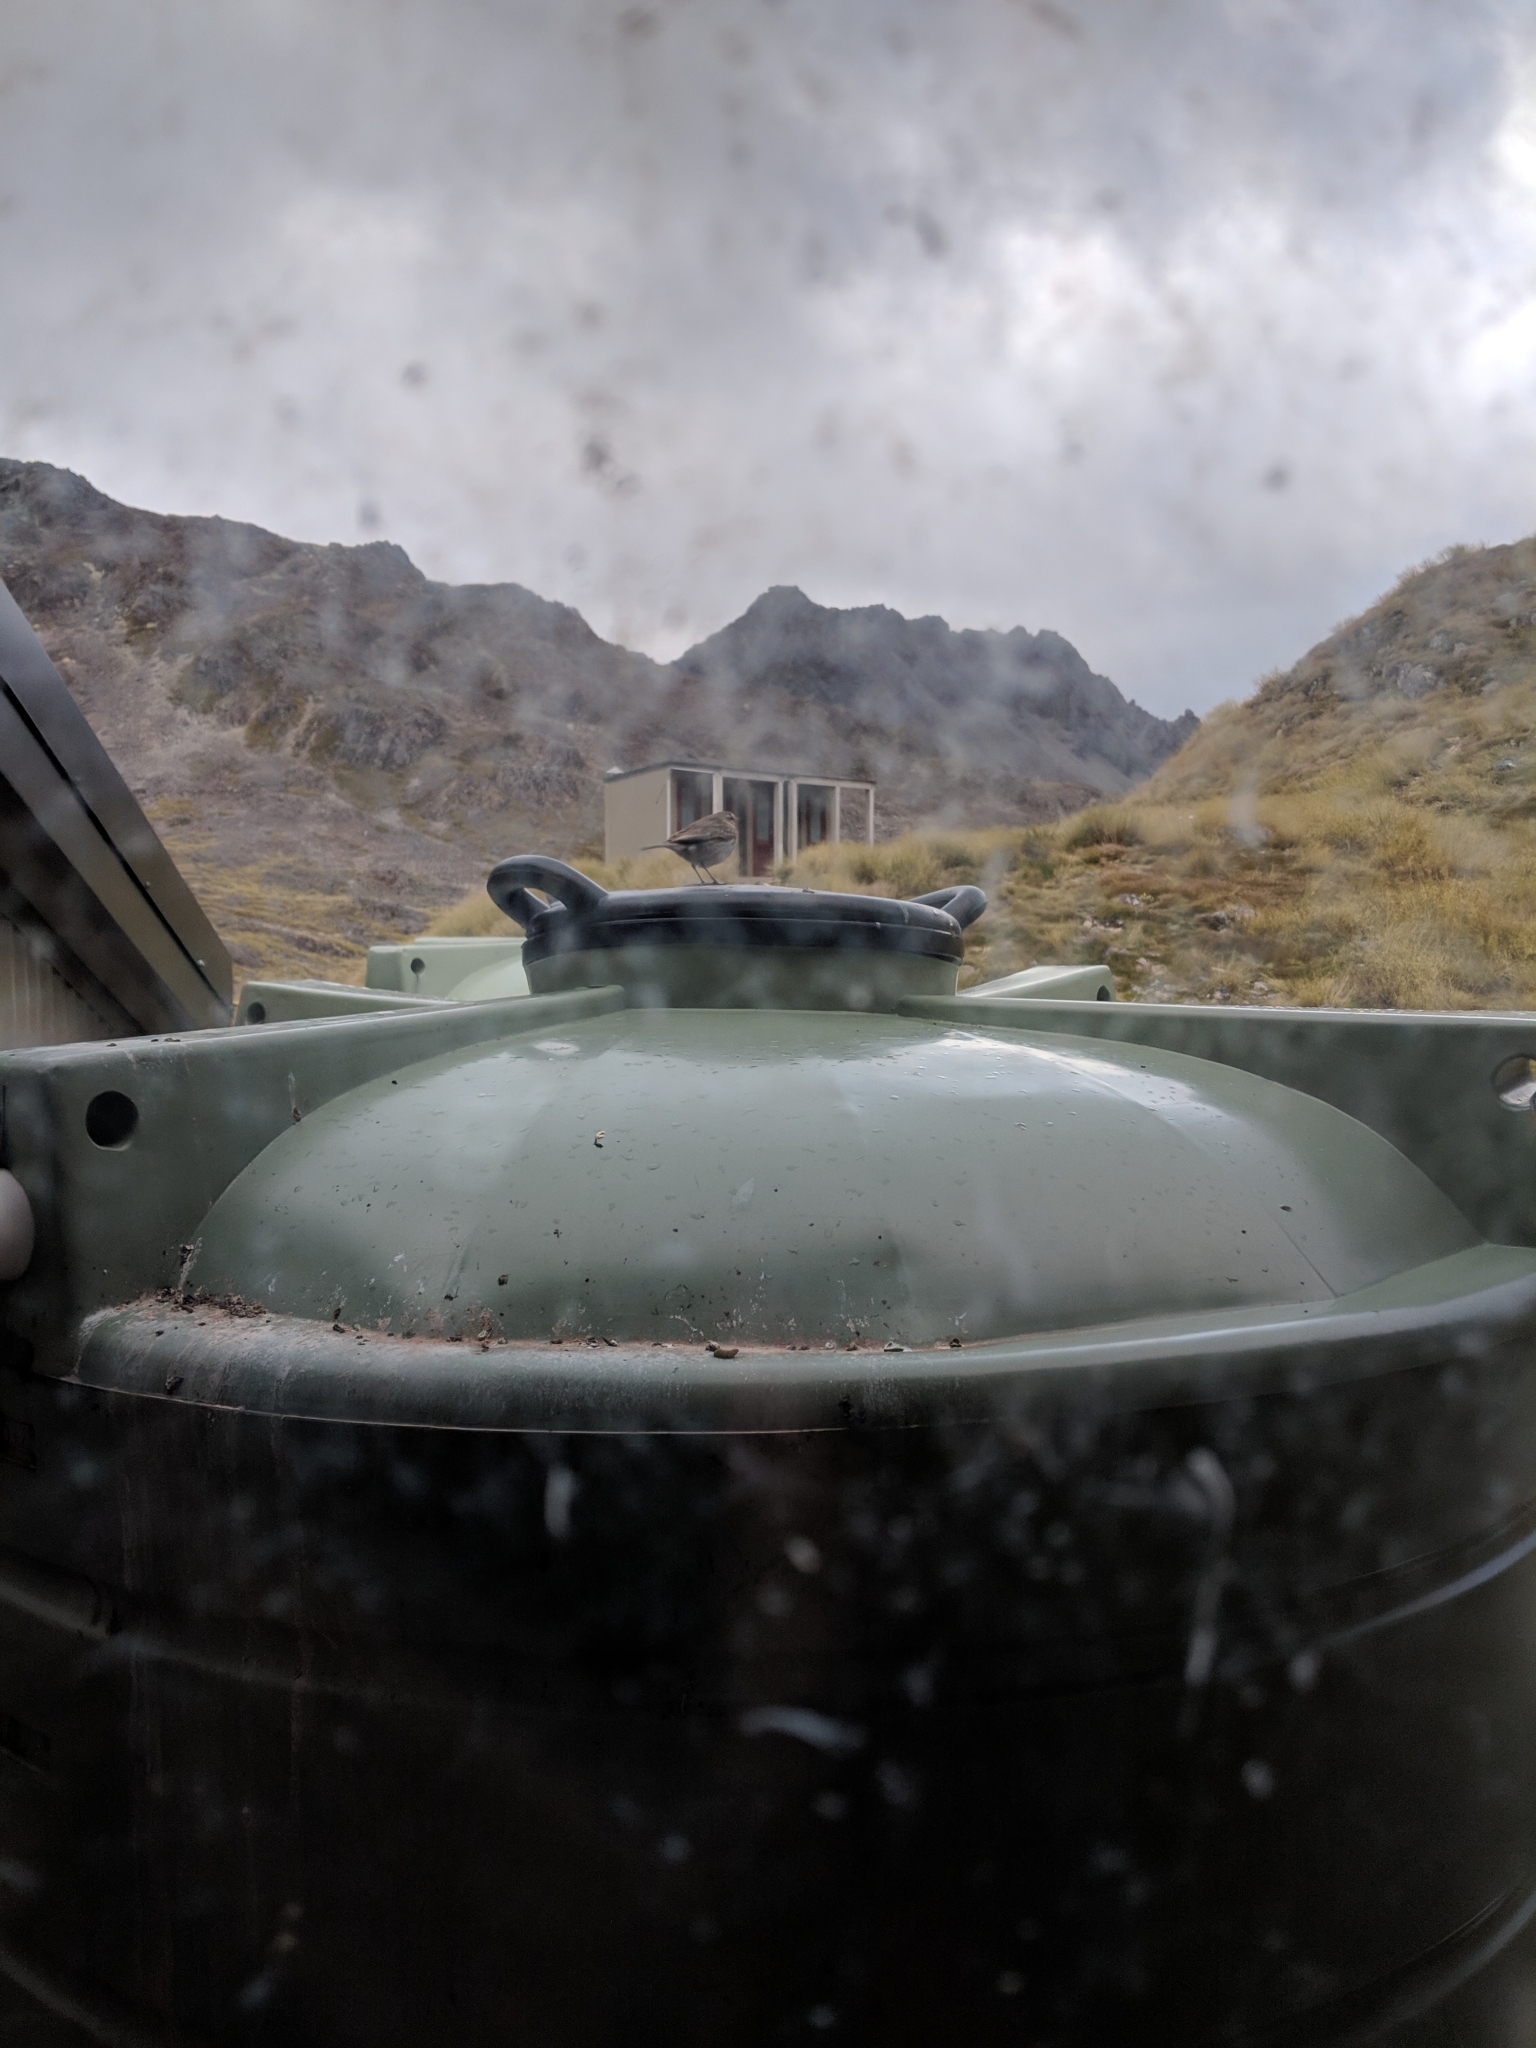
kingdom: Animalia
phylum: Chordata
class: Aves
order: Passeriformes
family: Motacillidae
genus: Anthus
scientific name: Anthus novaeseelandiae
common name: New zealand pipit
